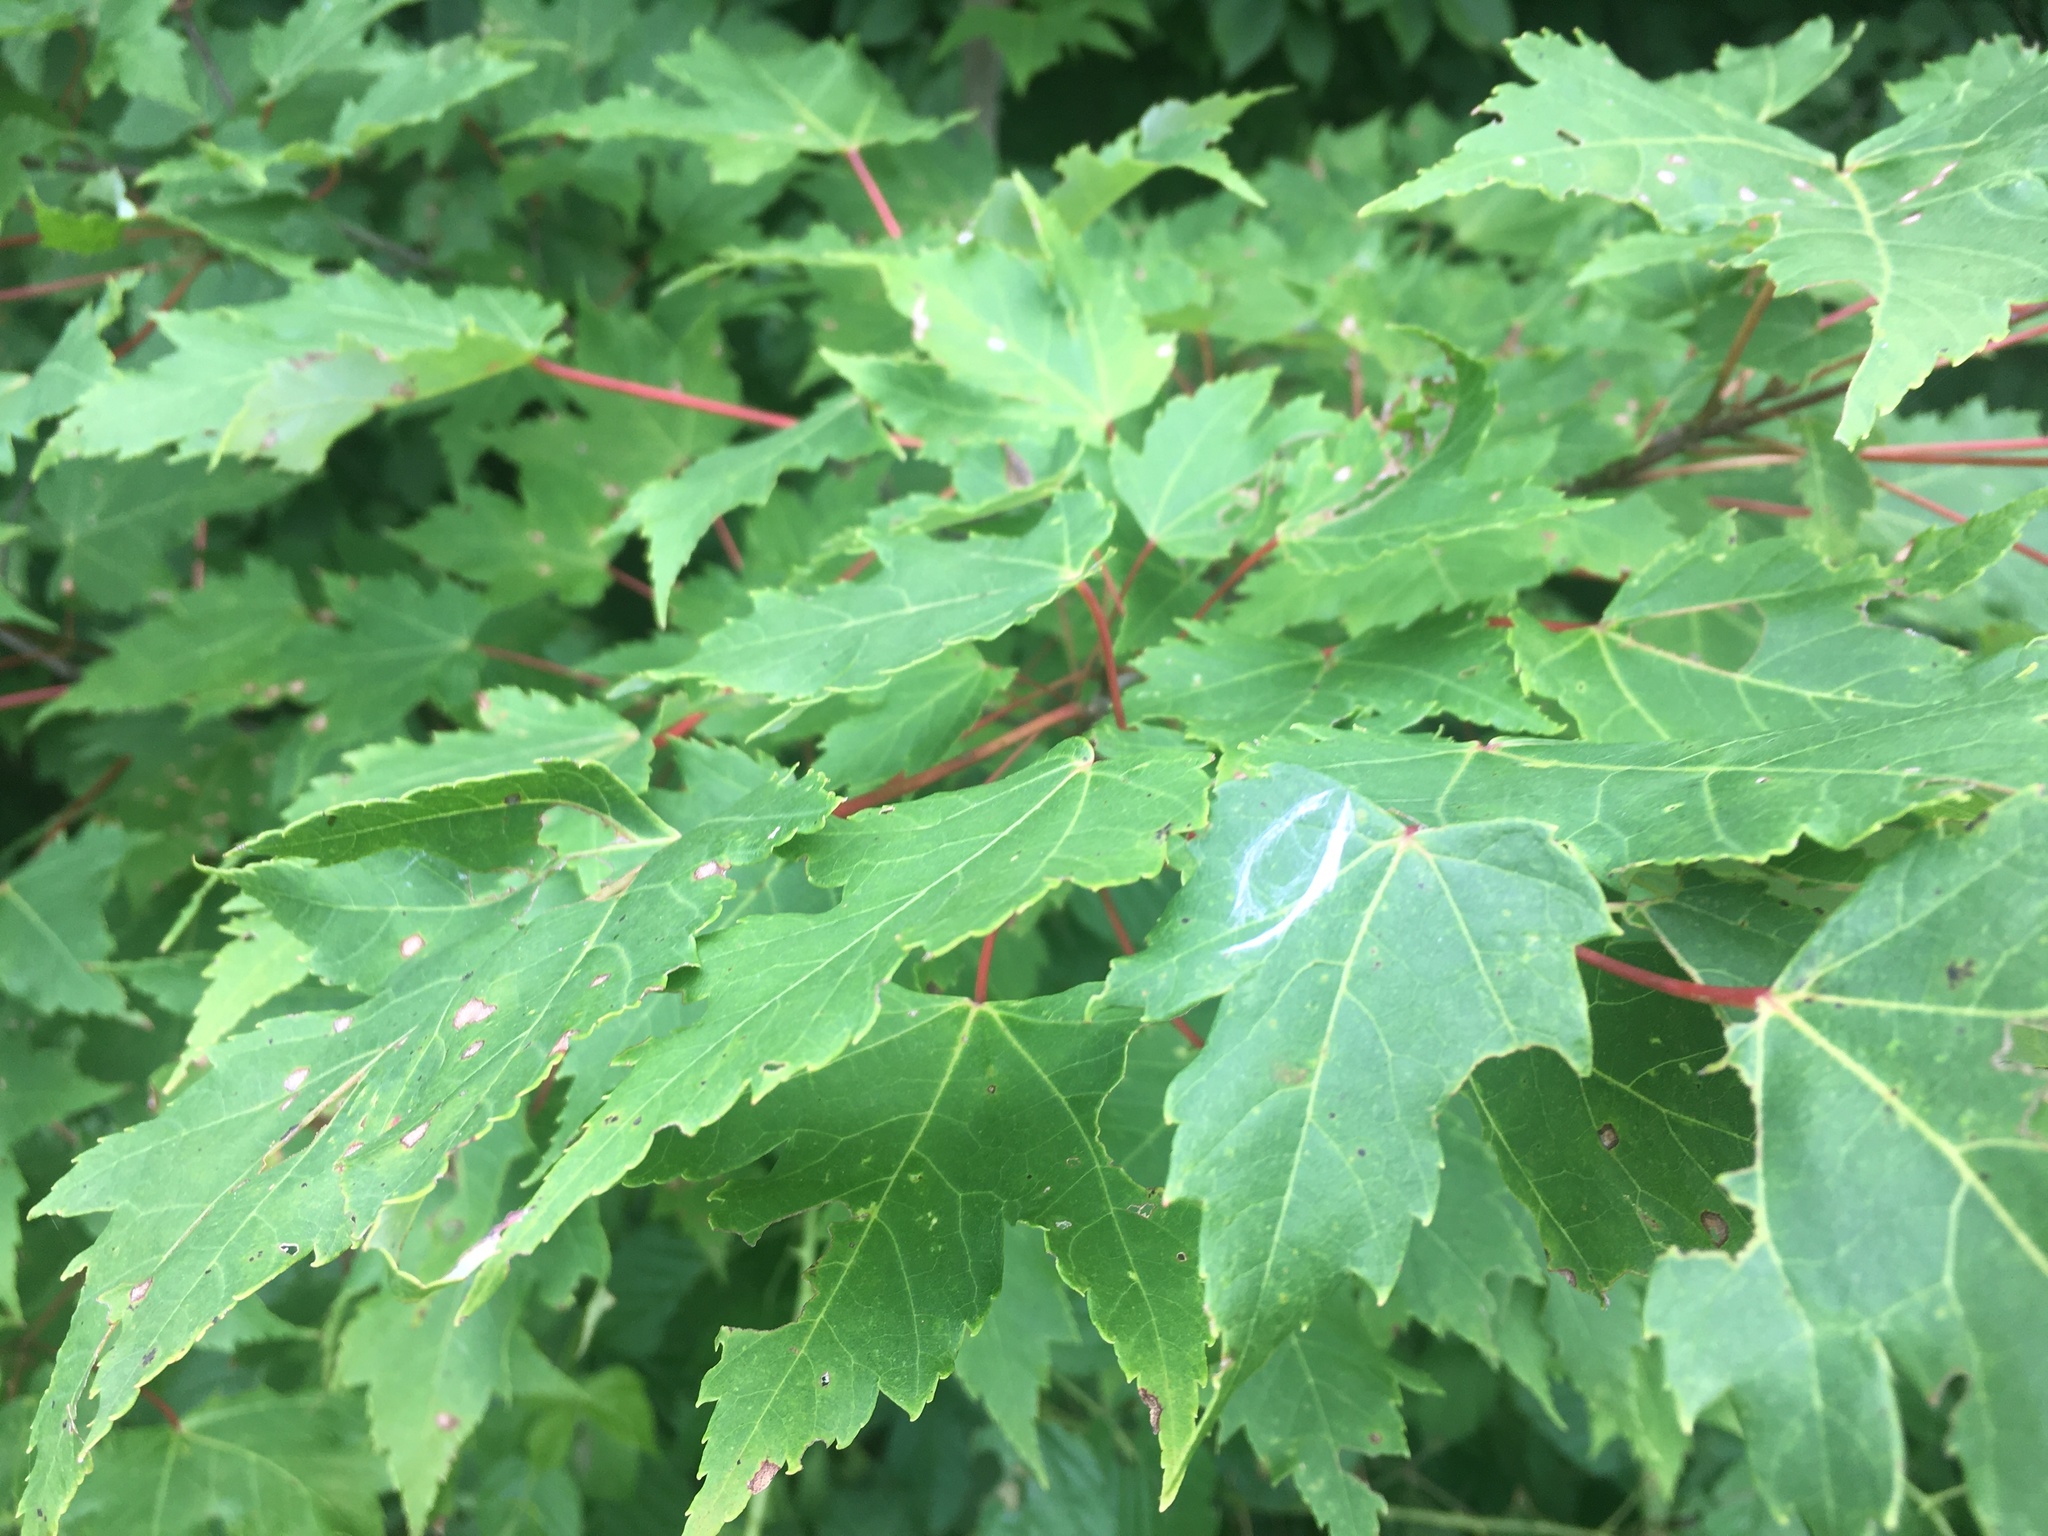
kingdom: Plantae
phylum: Tracheophyta
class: Magnoliopsida
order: Sapindales
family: Sapindaceae
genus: Acer
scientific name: Acer rubrum
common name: Red maple
